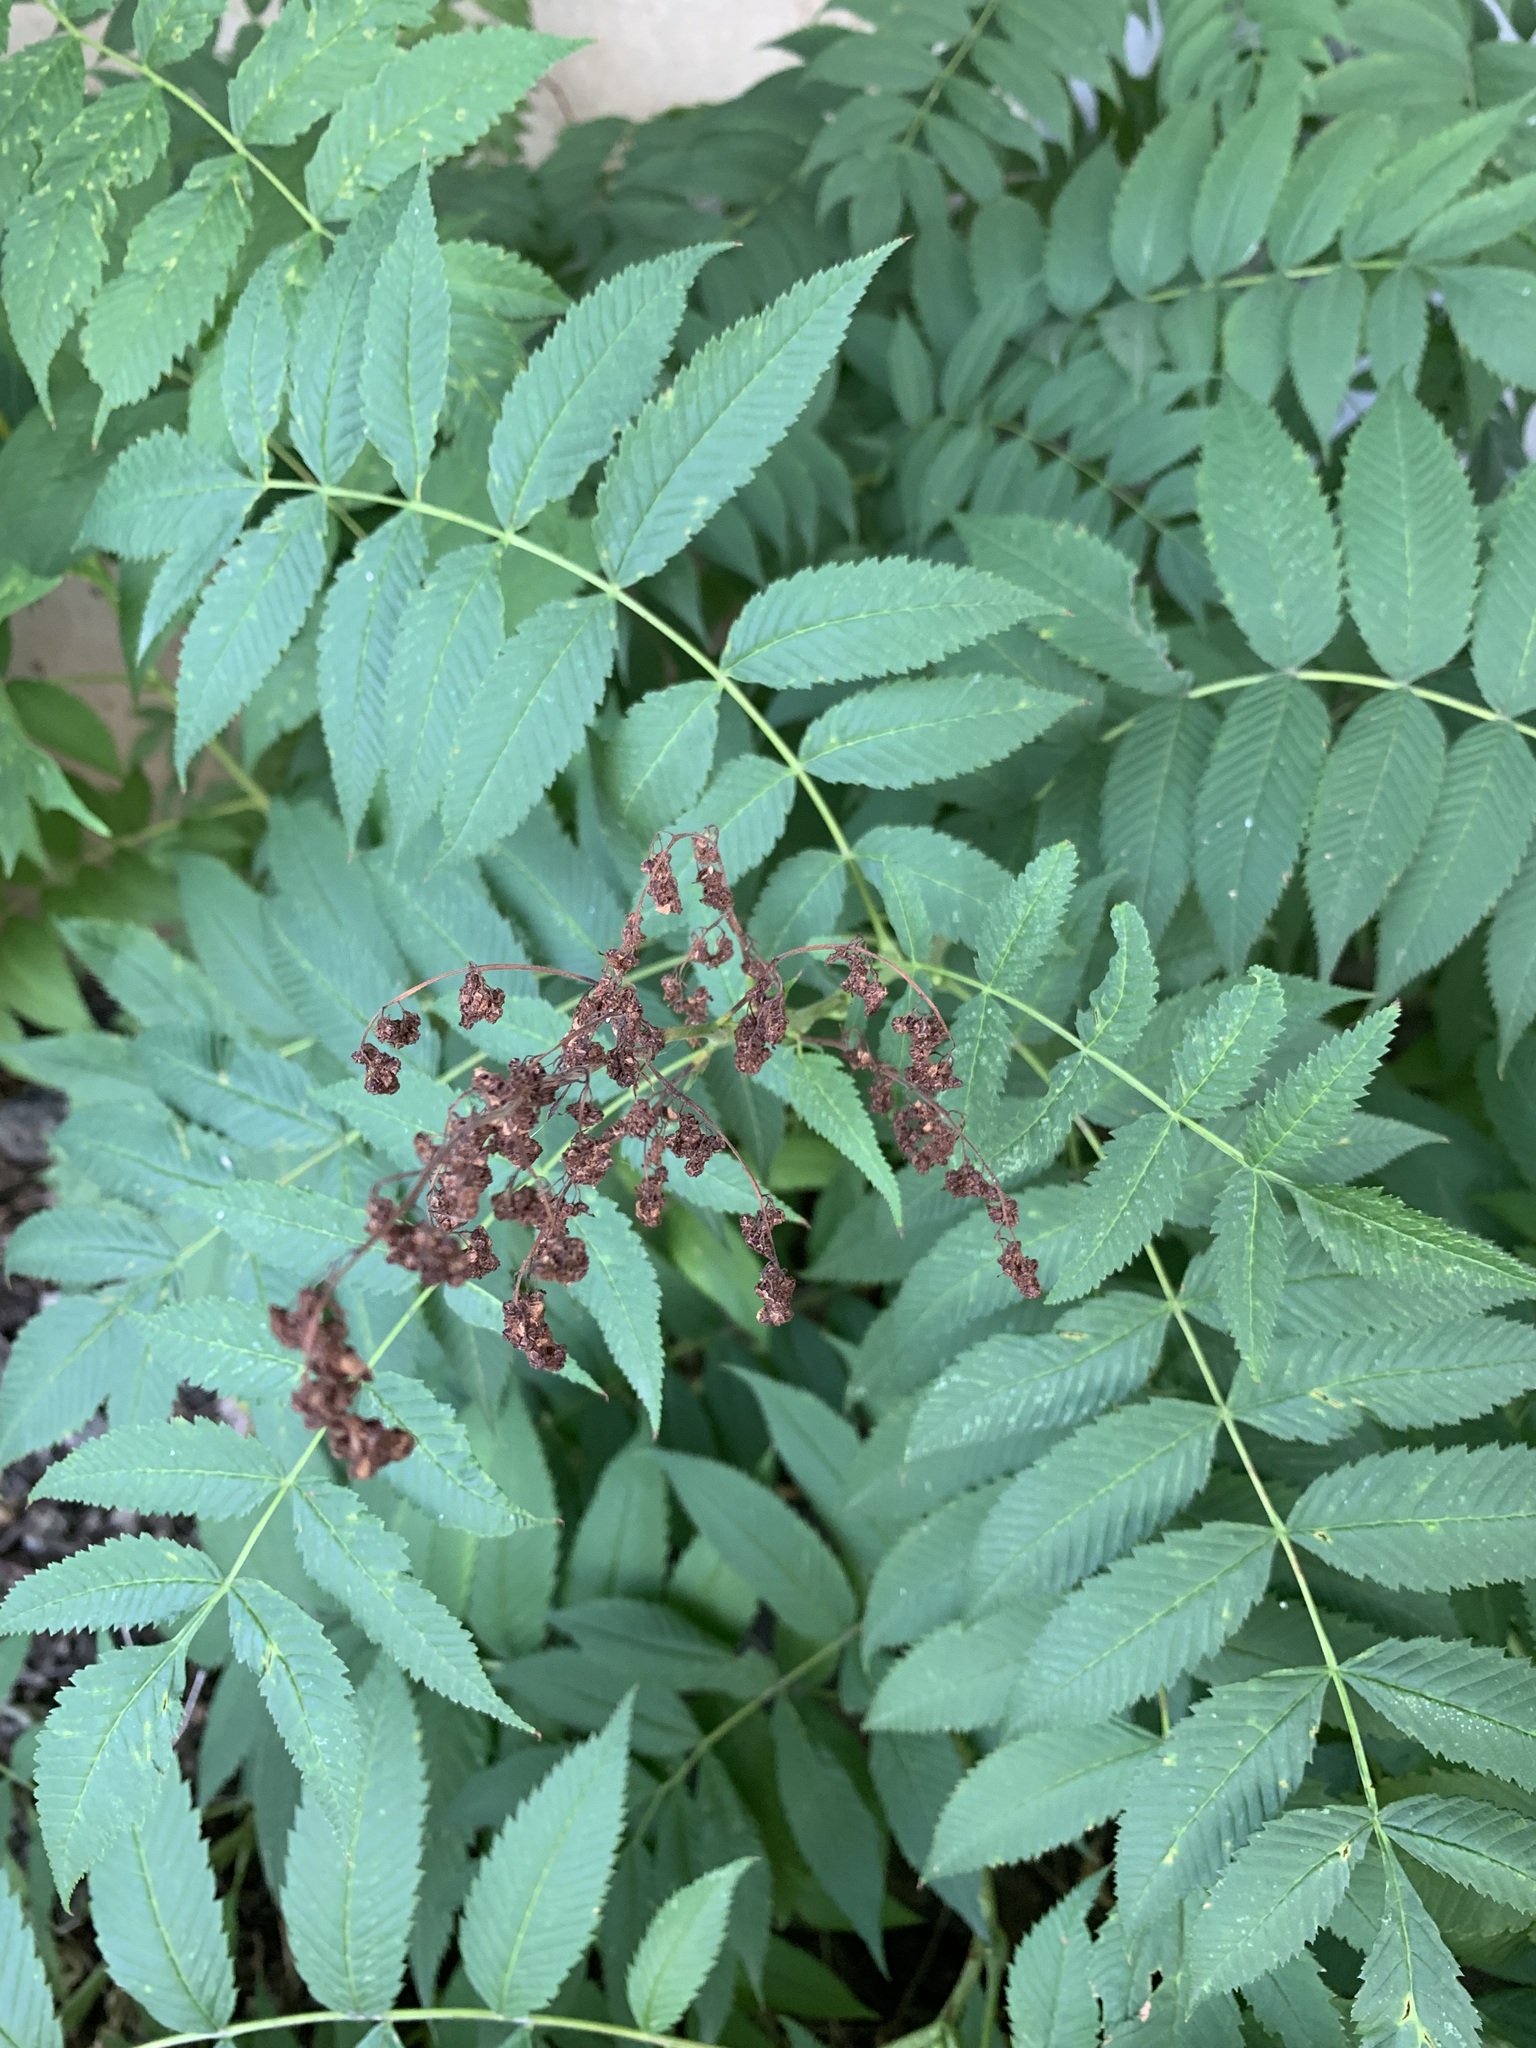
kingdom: Plantae
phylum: Tracheophyta
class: Magnoliopsida
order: Rosales
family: Rosaceae
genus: Sorbaria
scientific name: Sorbaria sorbifolia
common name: False spiraea
